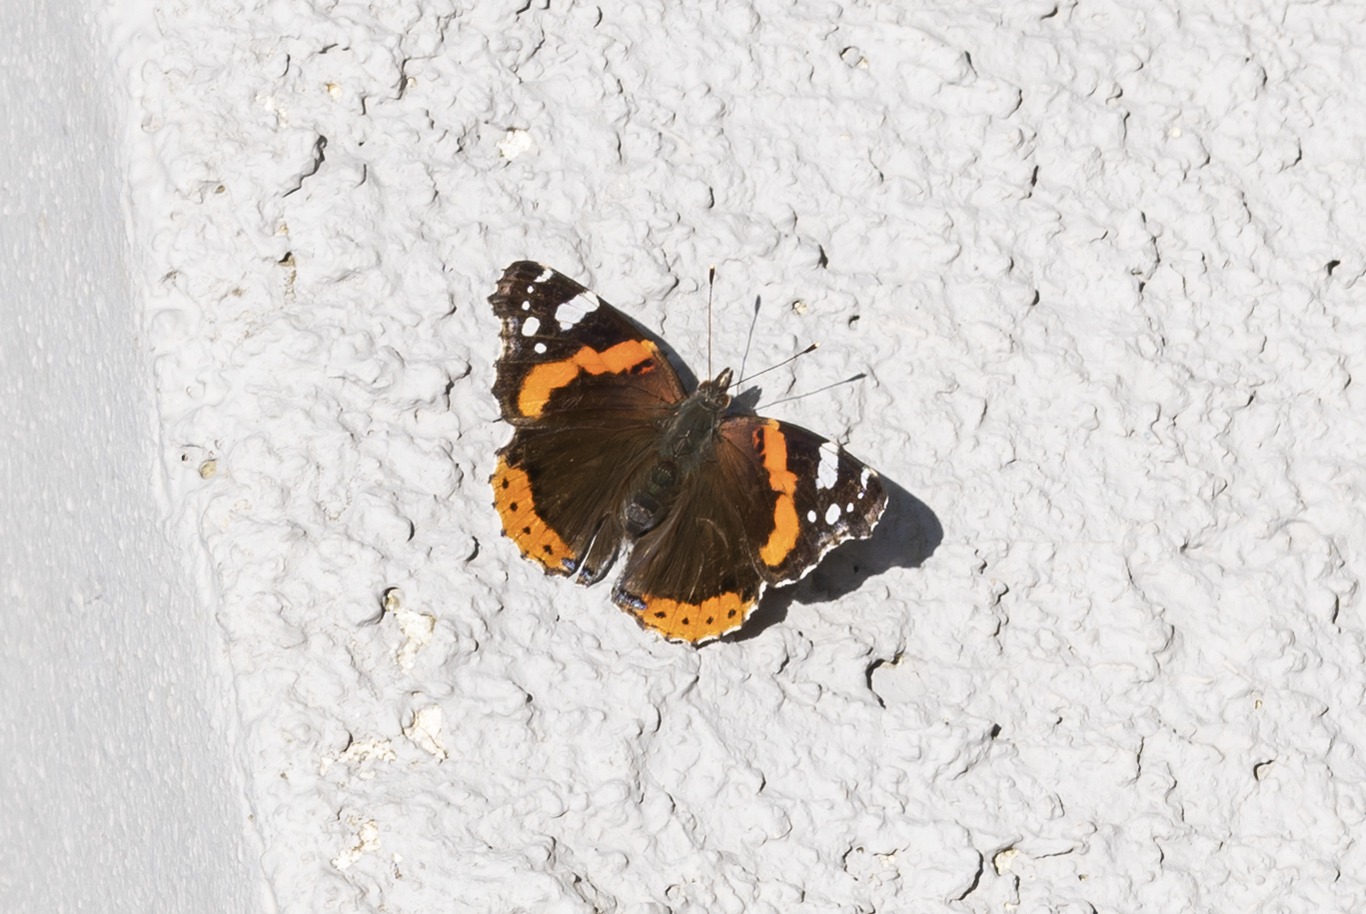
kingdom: Animalia
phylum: Arthropoda
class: Insecta
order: Lepidoptera
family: Nymphalidae
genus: Vanessa
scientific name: Vanessa atalanta
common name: Red admiral
